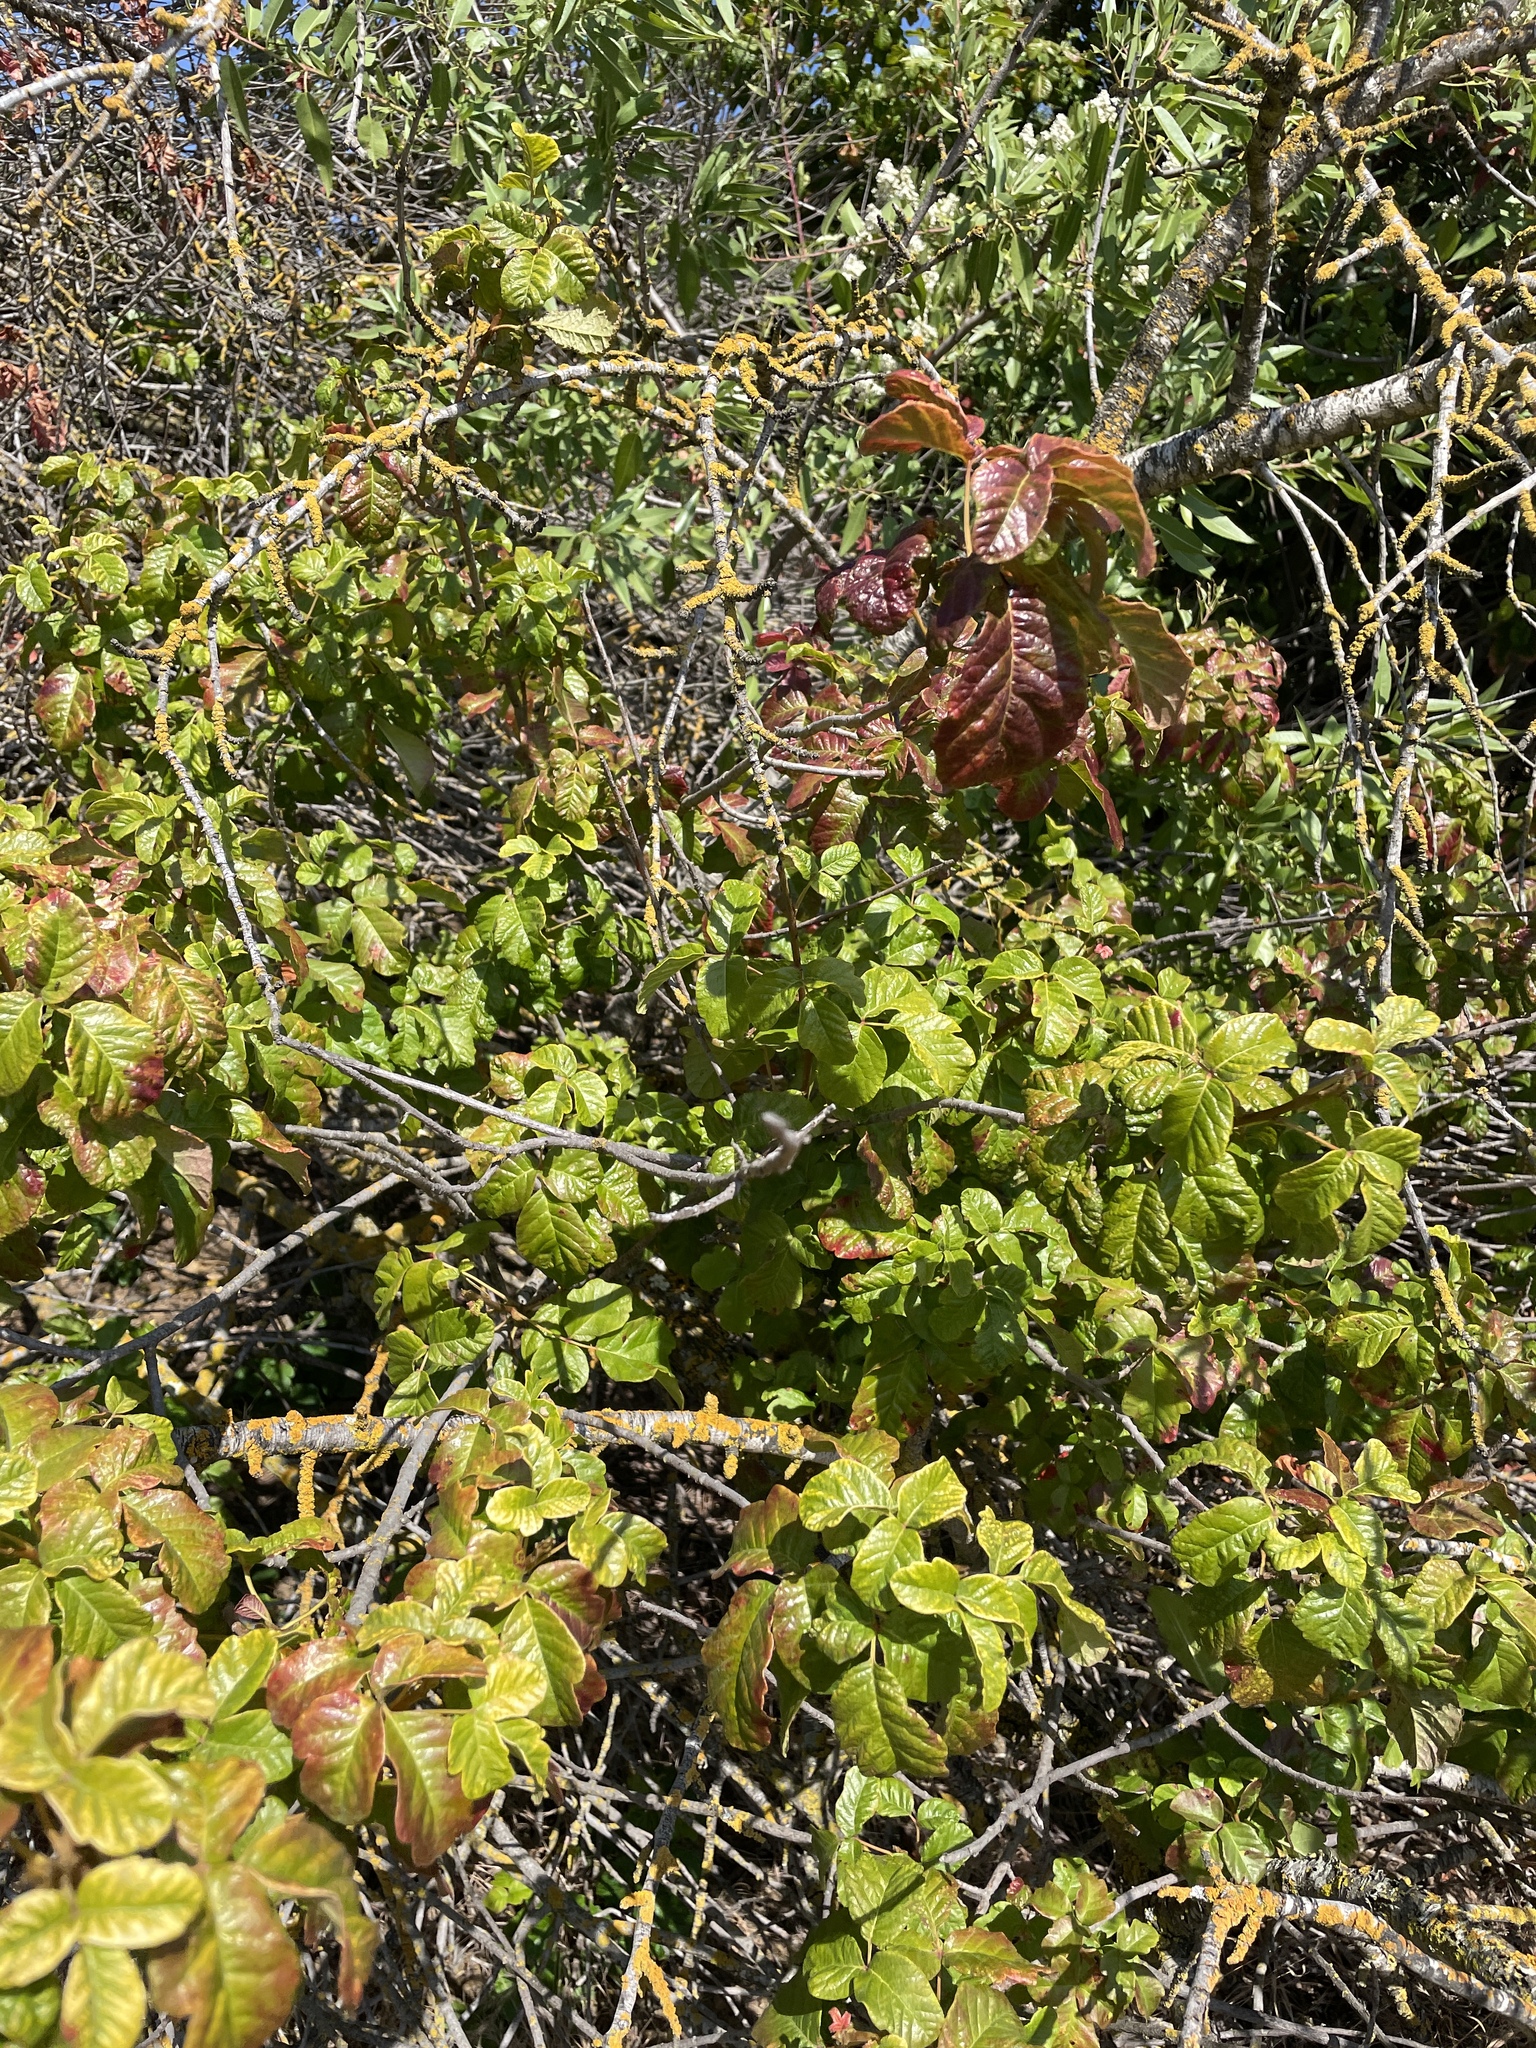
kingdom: Plantae
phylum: Tracheophyta
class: Magnoliopsida
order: Sapindales
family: Anacardiaceae
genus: Toxicodendron
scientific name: Toxicodendron diversilobum
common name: Pacific poison-oak
